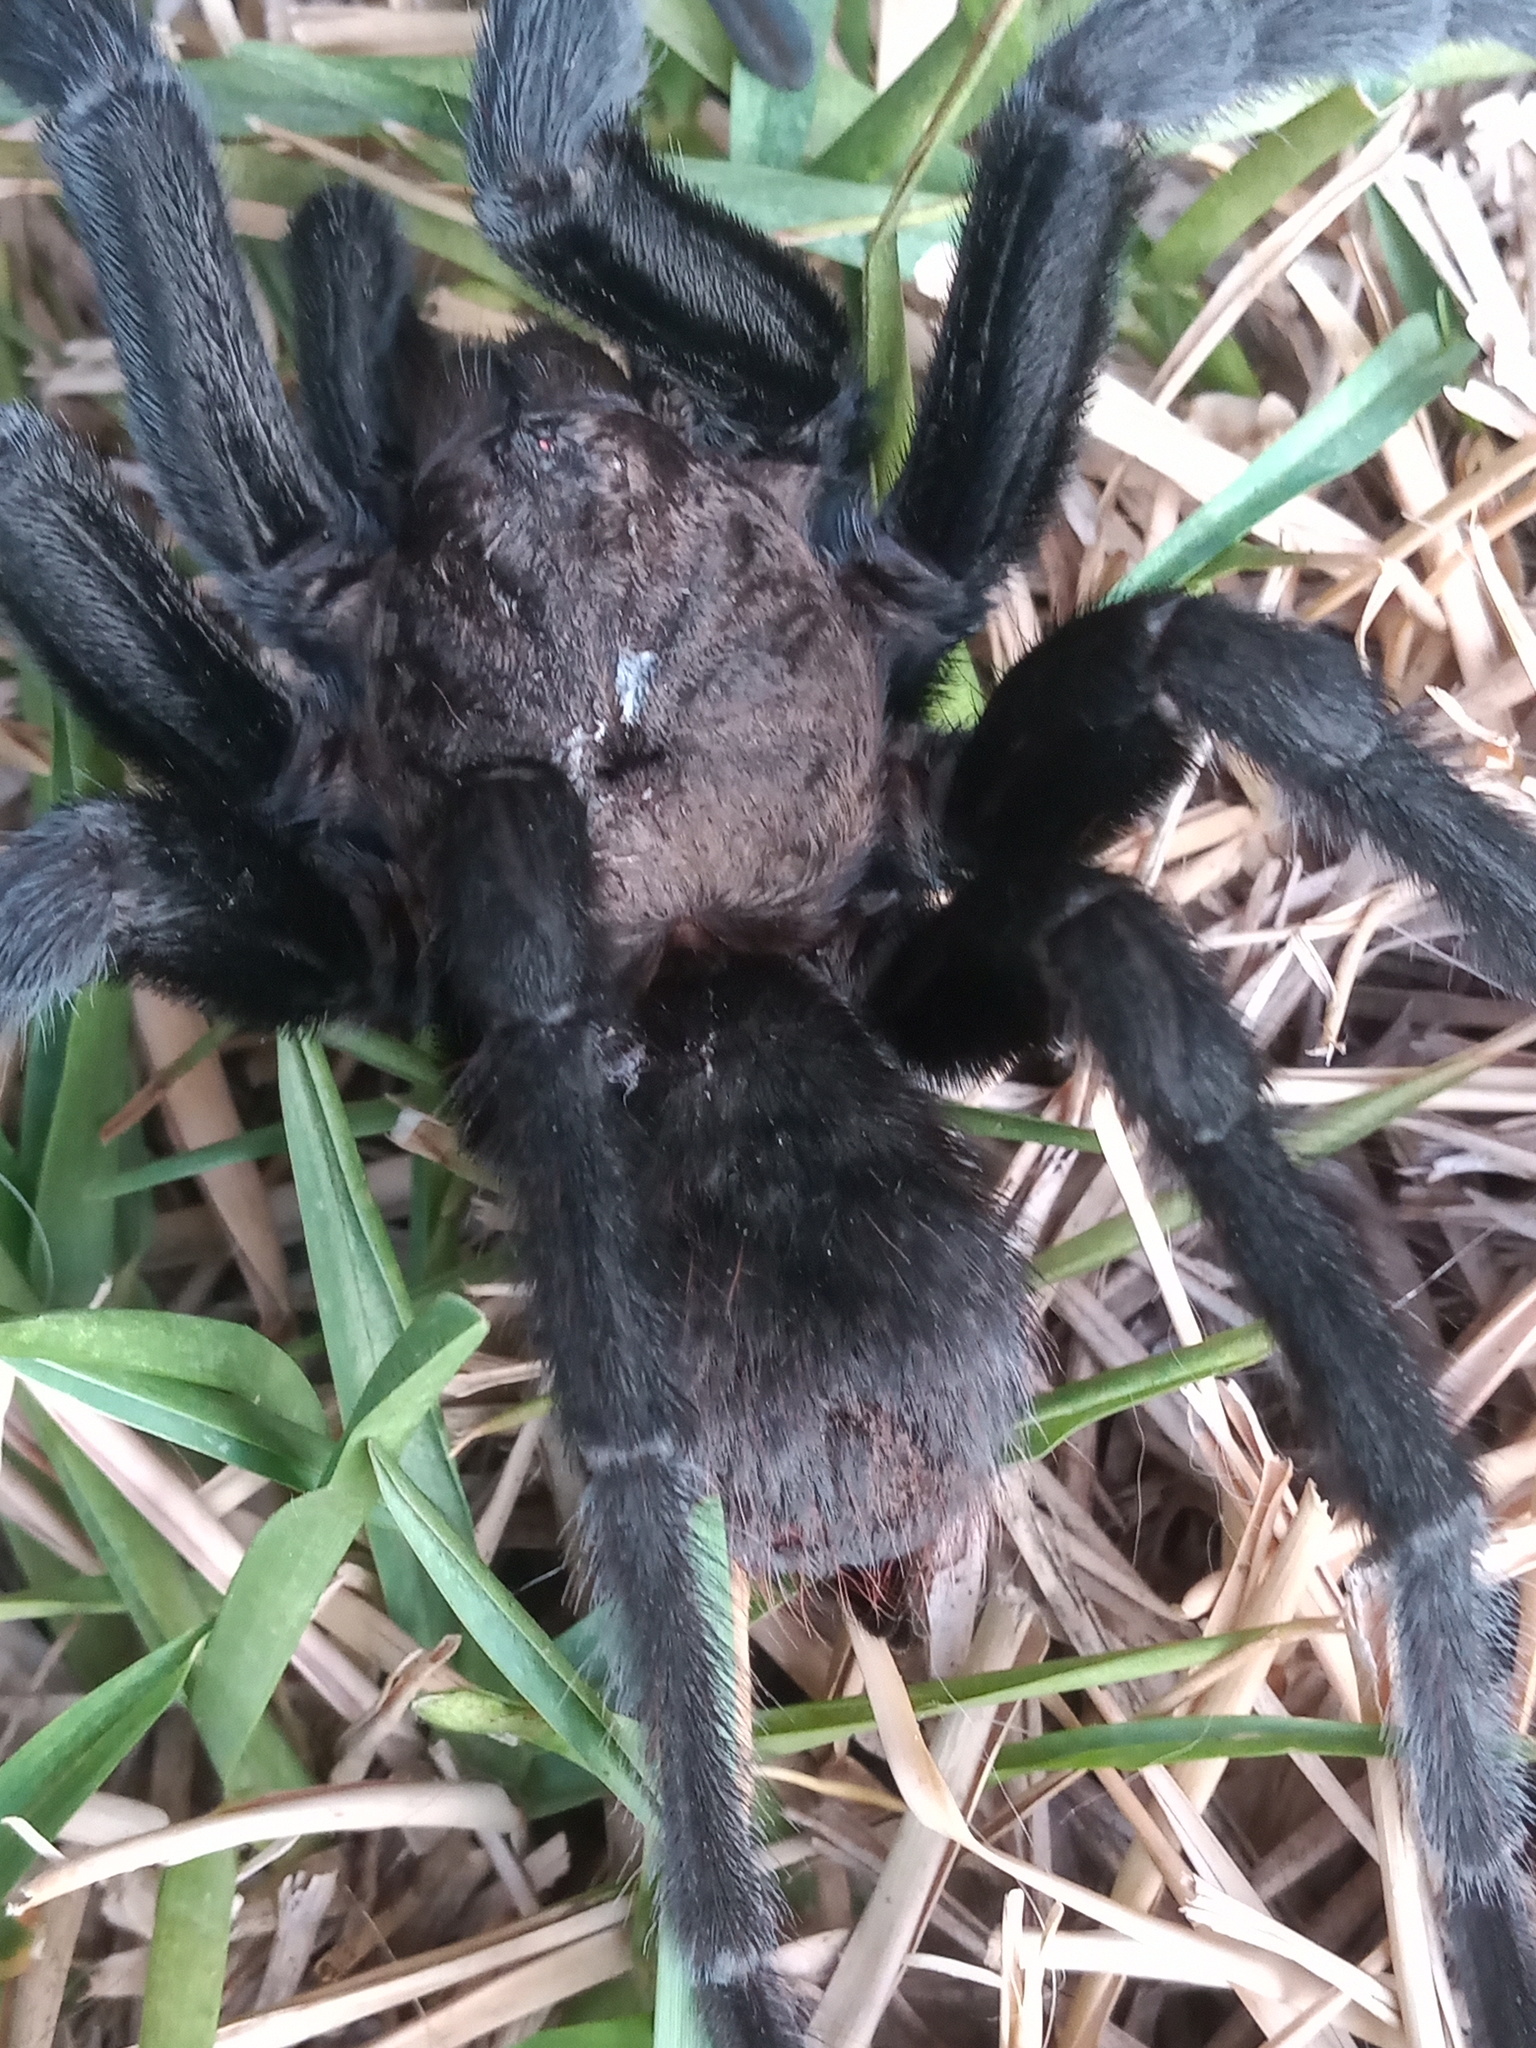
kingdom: Animalia
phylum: Arthropoda
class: Arachnida
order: Araneae
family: Theraphosidae
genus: Aphonopelma
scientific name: Aphonopelma anax
